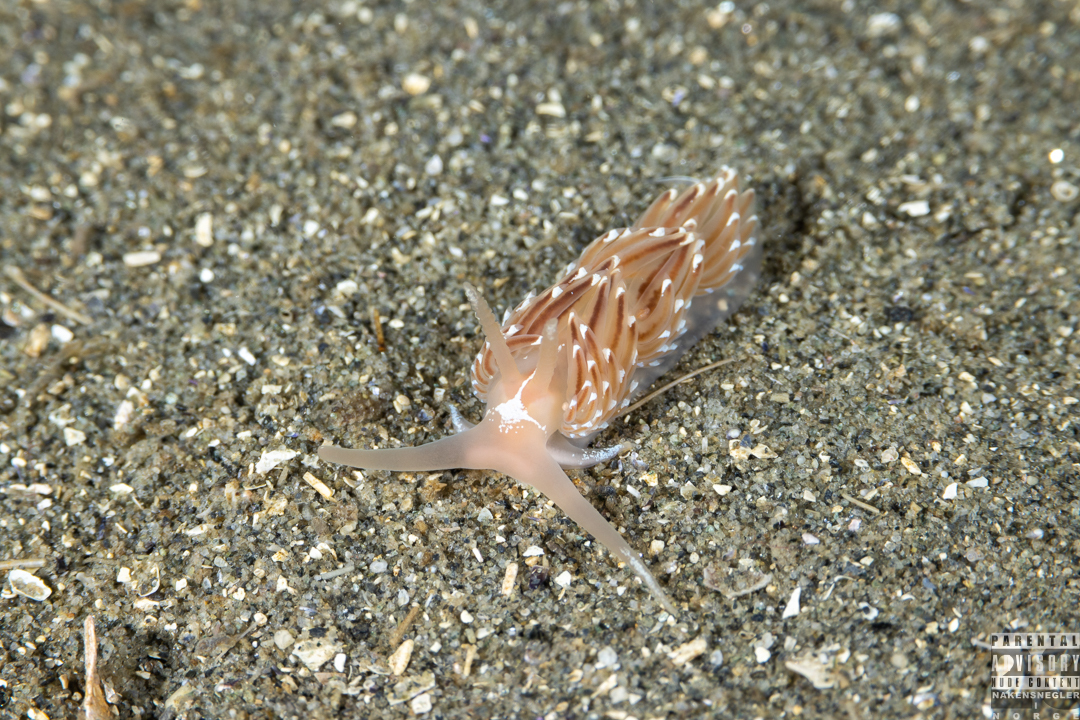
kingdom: Animalia
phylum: Mollusca
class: Gastropoda
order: Nudibranchia
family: Facelinidae
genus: Facelina
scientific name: Facelina bostoniensis
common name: Boston facelina
